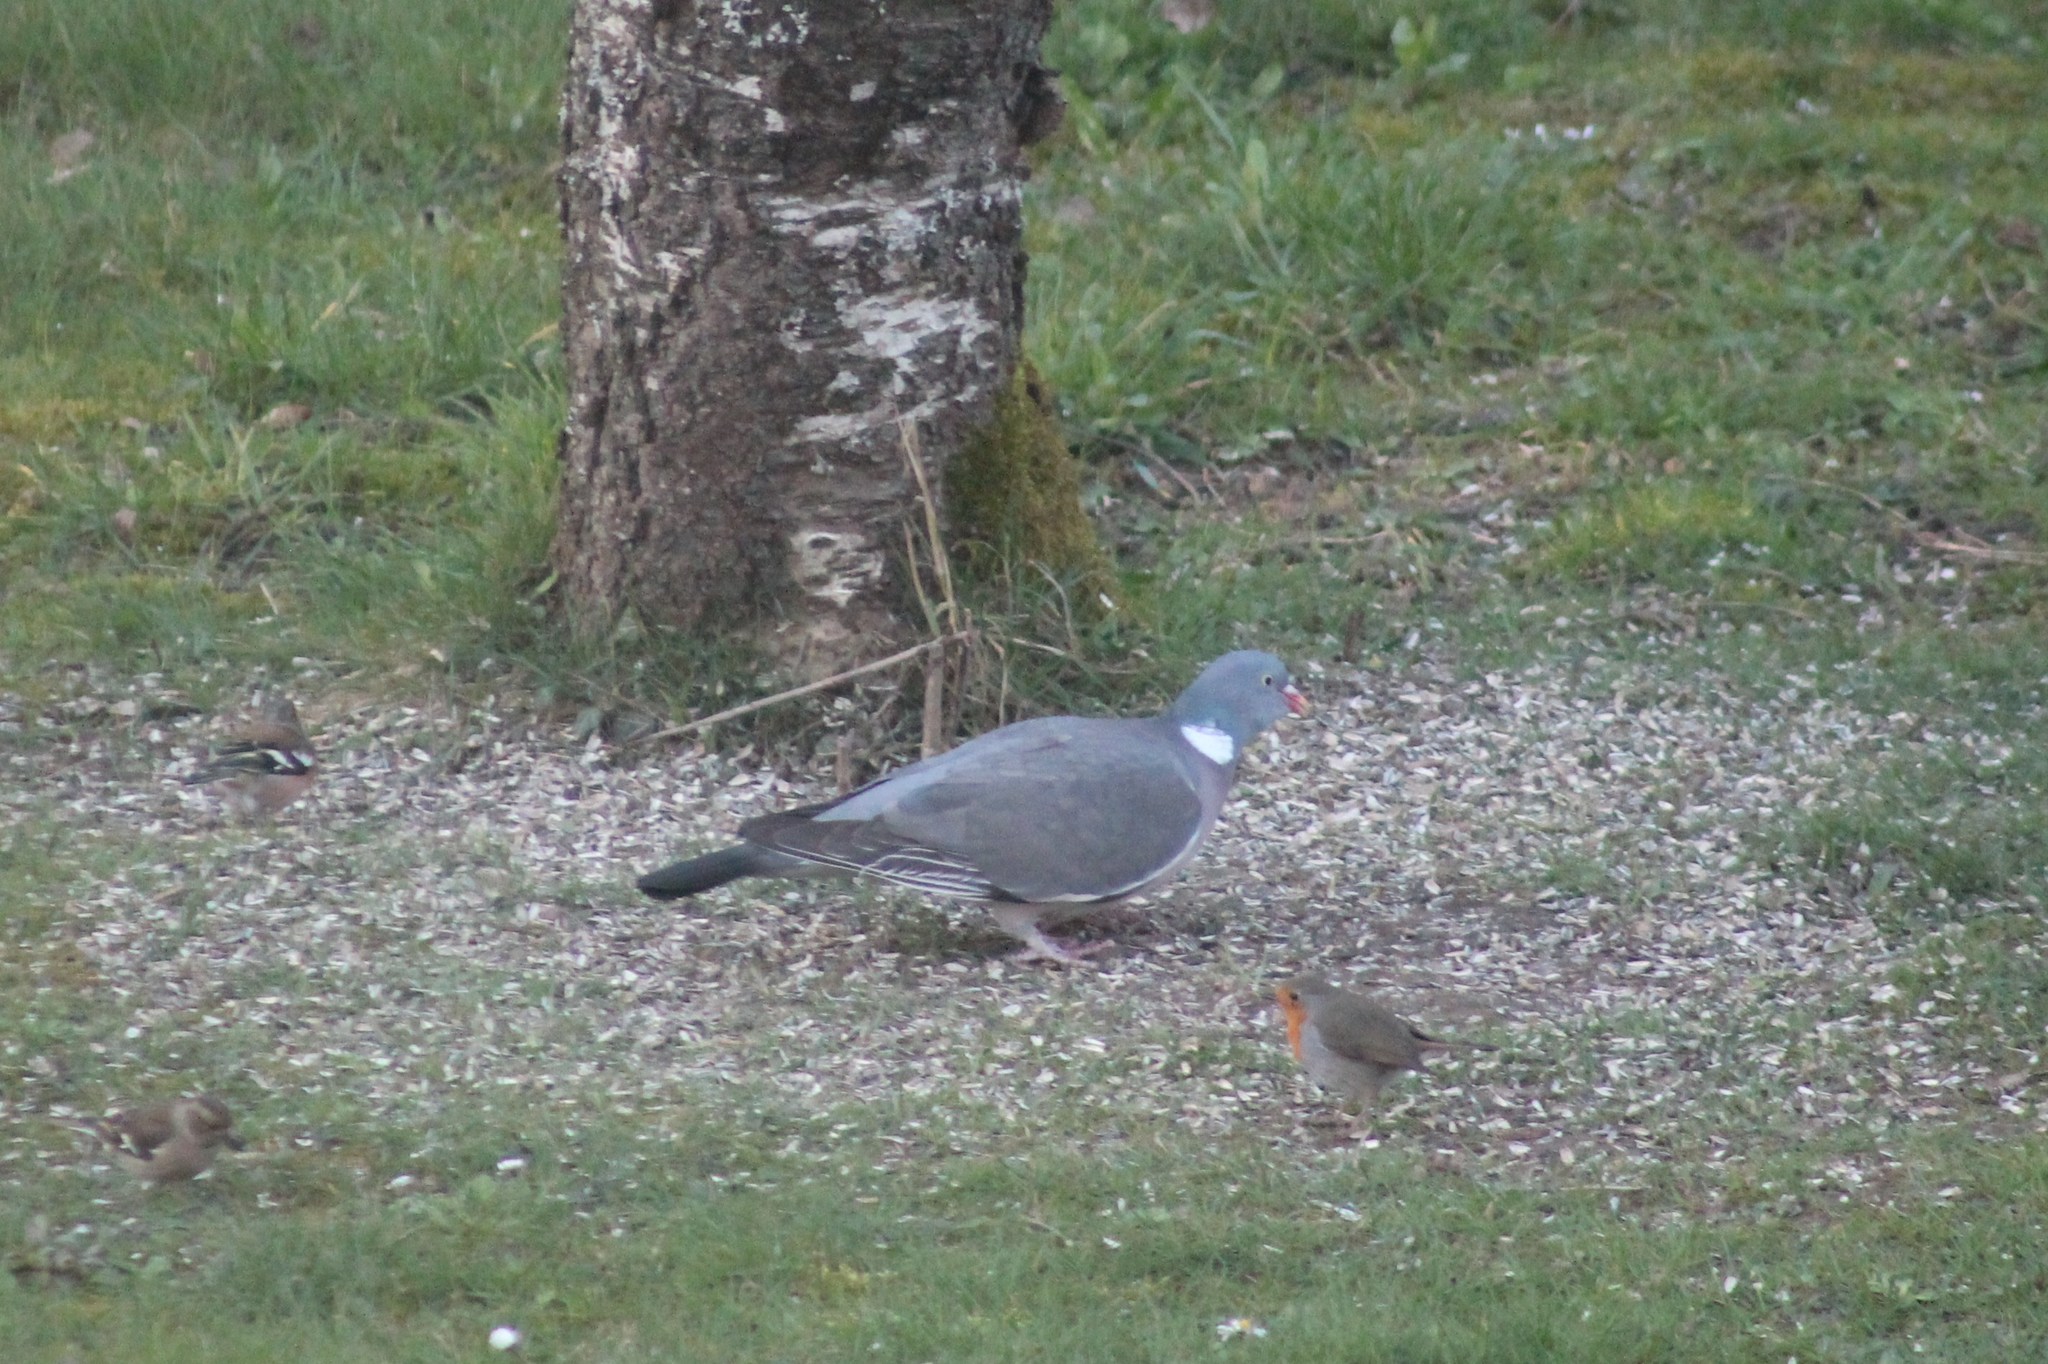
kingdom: Animalia
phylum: Chordata
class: Aves
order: Passeriformes
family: Muscicapidae
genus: Erithacus
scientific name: Erithacus rubecula
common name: European robin
